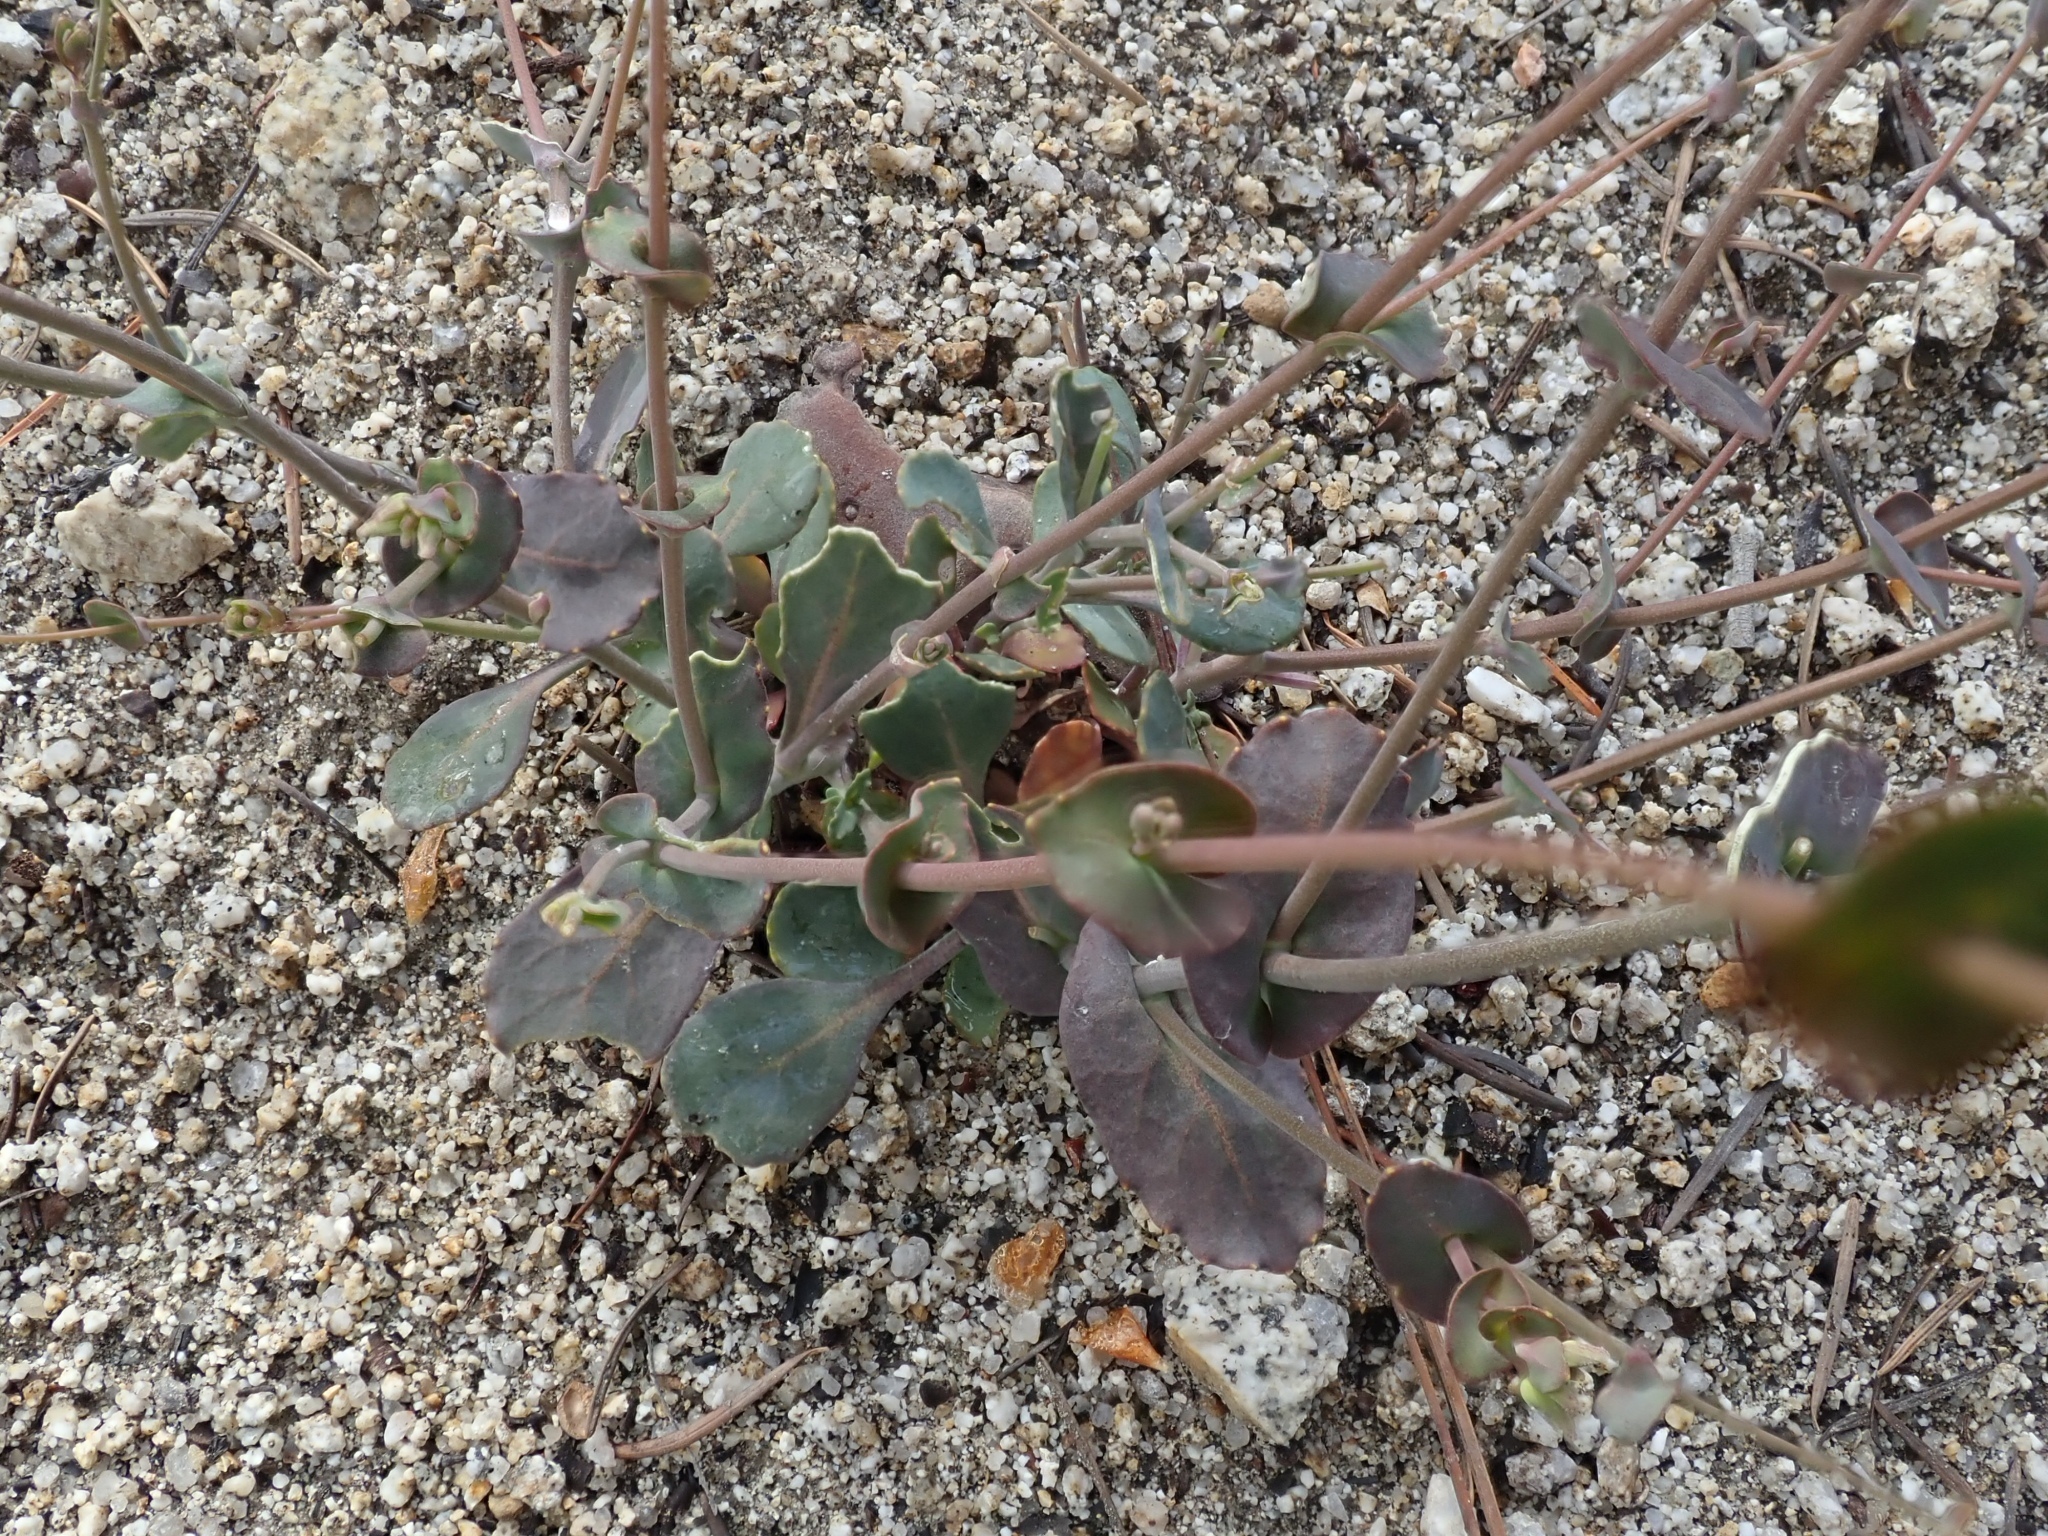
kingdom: Plantae
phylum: Tracheophyta
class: Magnoliopsida
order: Brassicales
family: Brassicaceae
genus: Streptanthus
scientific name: Streptanthus tortuosus
